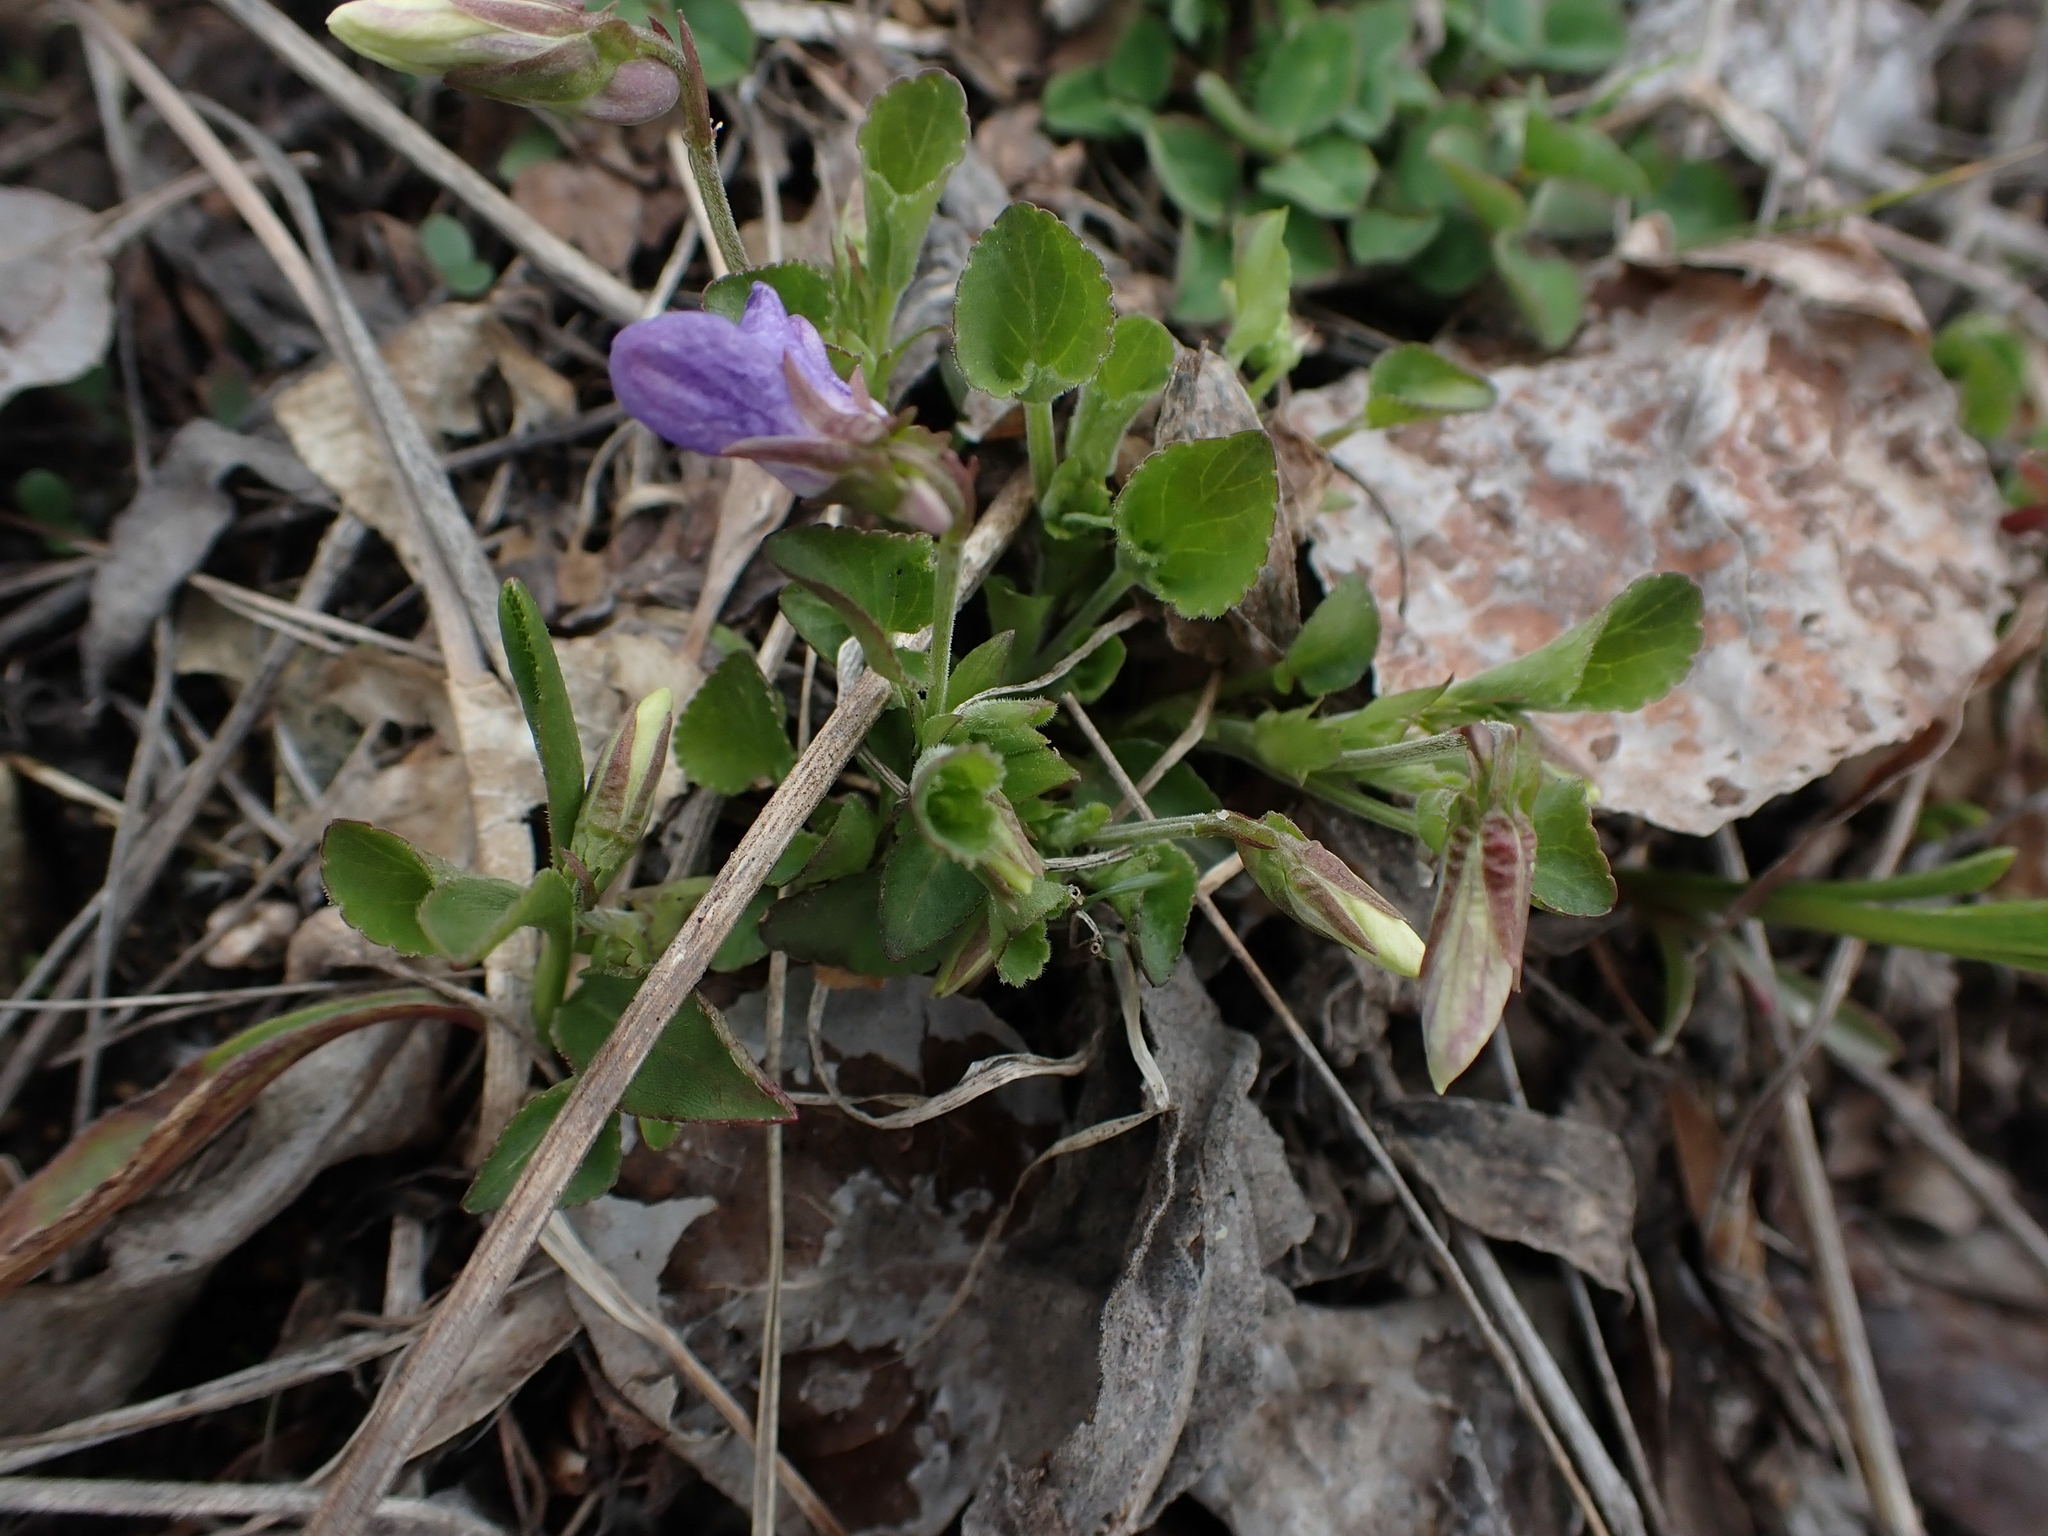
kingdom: Plantae
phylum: Tracheophyta
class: Magnoliopsida
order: Malpighiales
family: Violaceae
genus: Viola
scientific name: Viola adunca
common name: Sand violet
